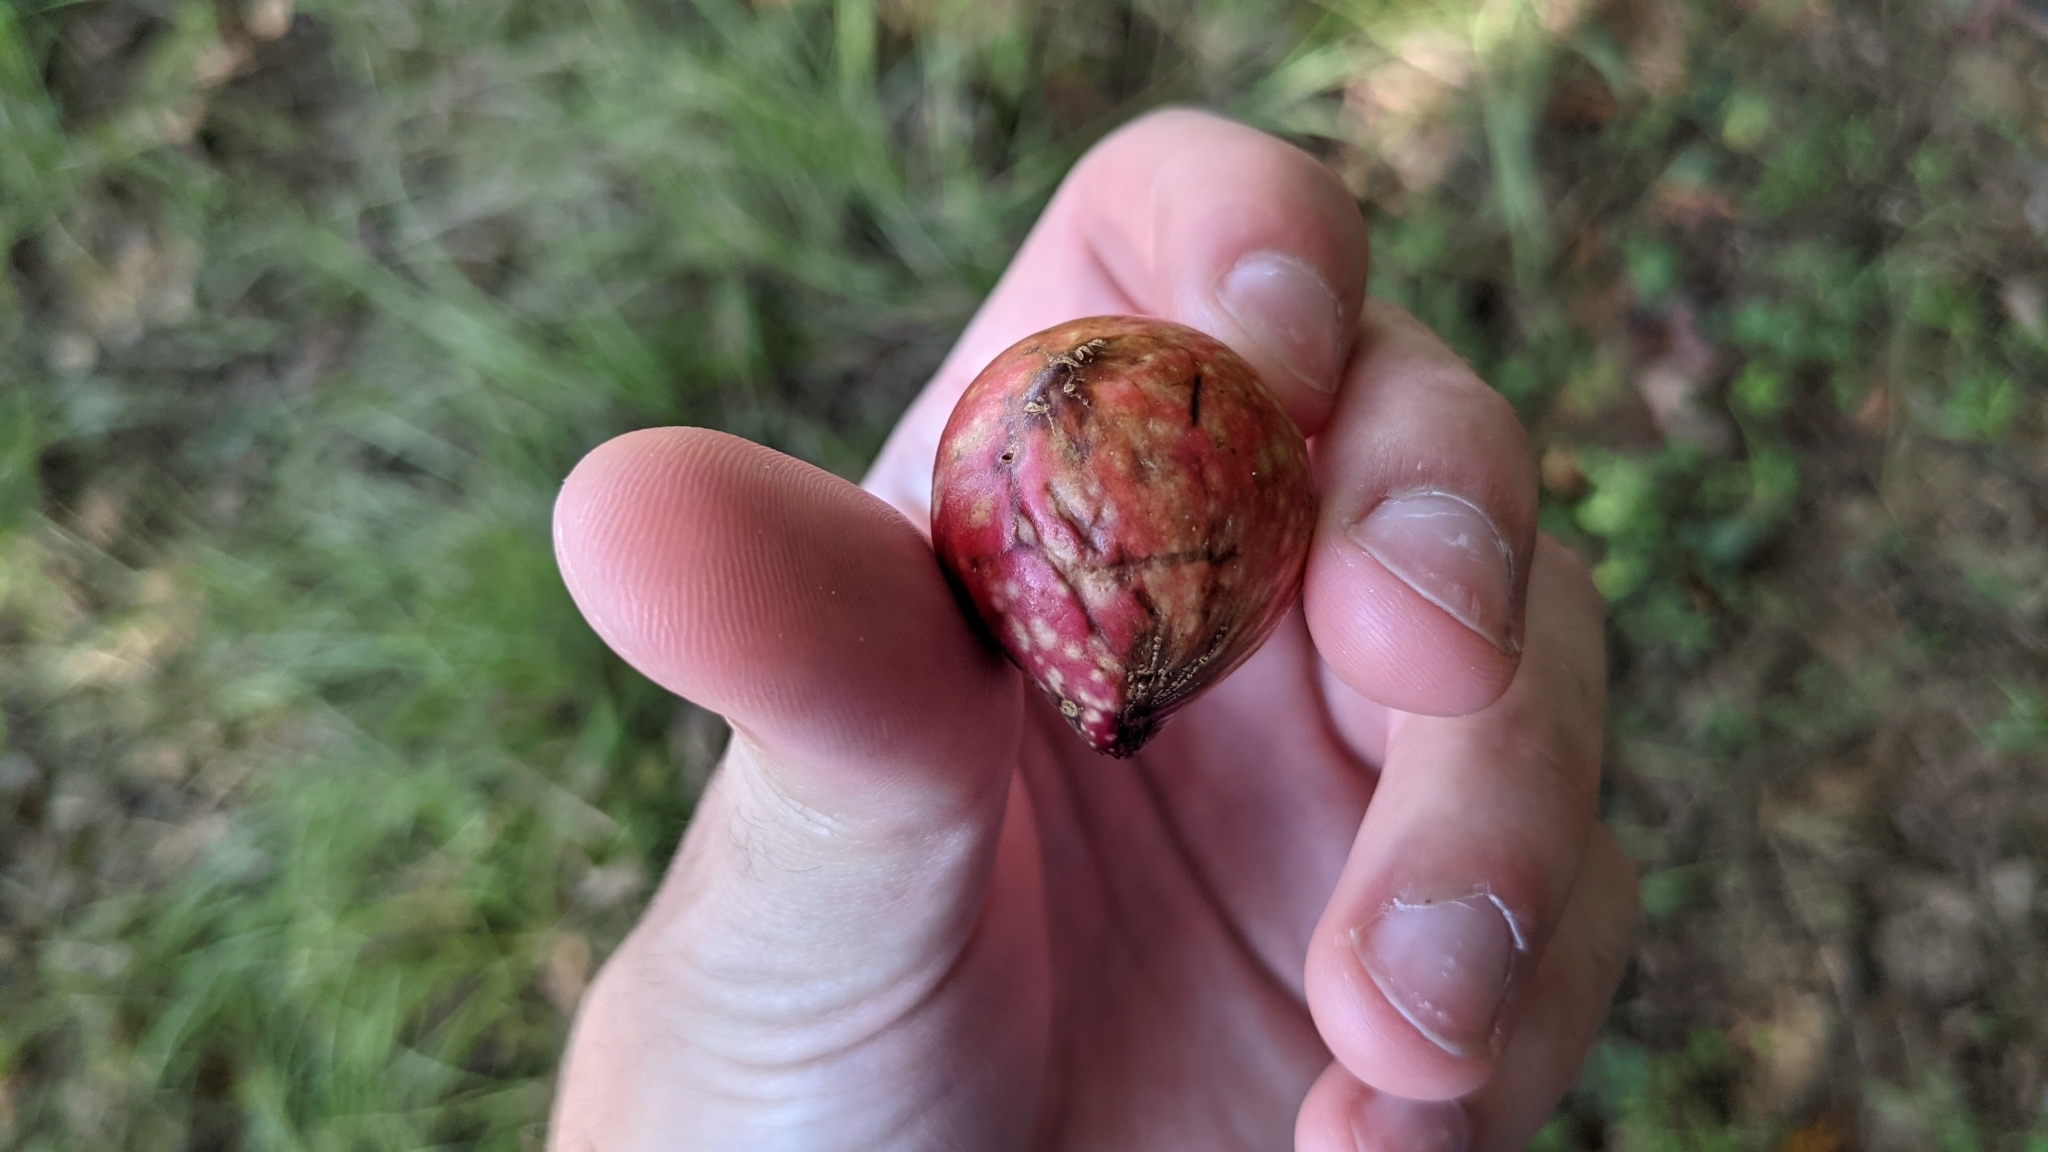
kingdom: Animalia
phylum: Arthropoda
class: Insecta
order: Hymenoptera
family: Cynipidae
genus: Amphibolips
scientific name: Amphibolips
